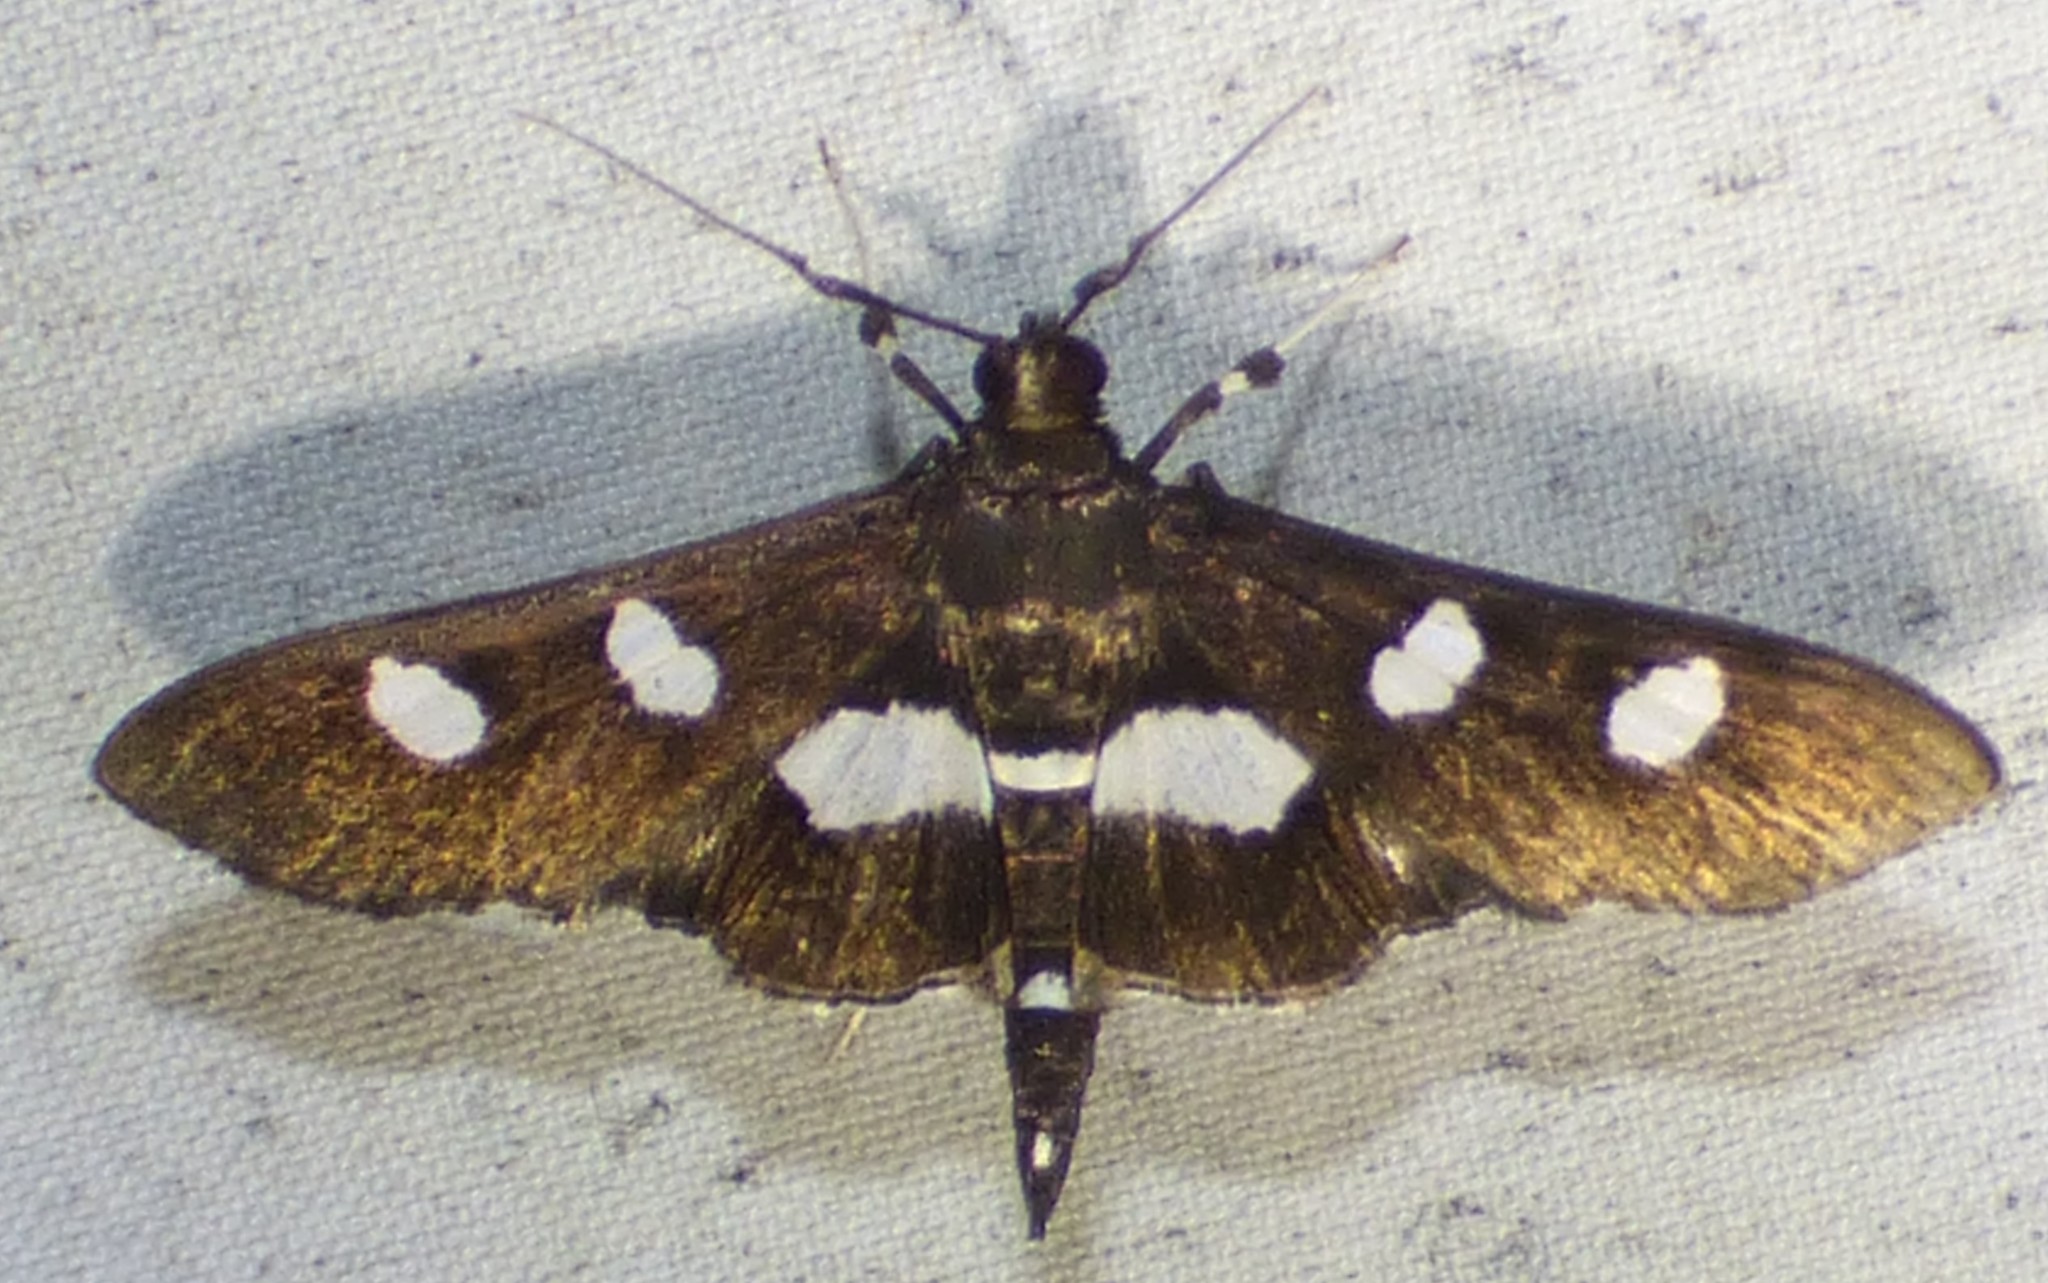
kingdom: Animalia
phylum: Arthropoda
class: Insecta
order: Lepidoptera
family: Crambidae
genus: Desmia
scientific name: Desmia funeralis
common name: Grape leaf folder moth
